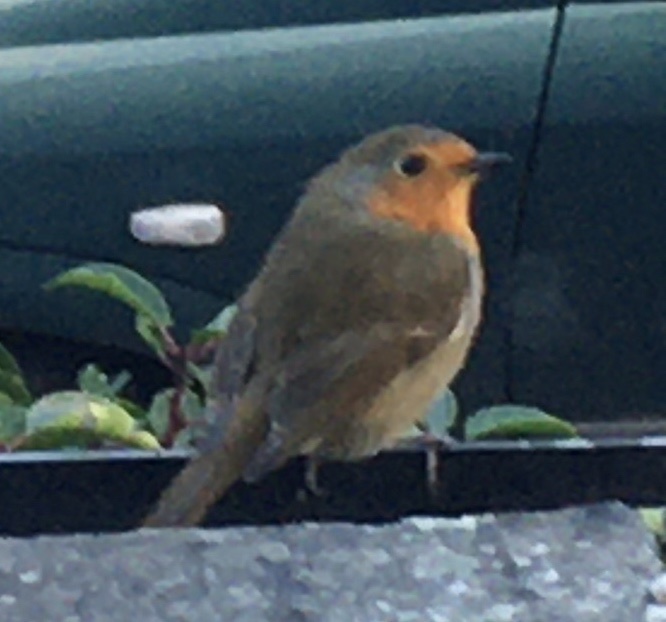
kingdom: Animalia
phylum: Chordata
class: Aves
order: Passeriformes
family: Muscicapidae
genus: Erithacus
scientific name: Erithacus rubecula
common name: European robin
